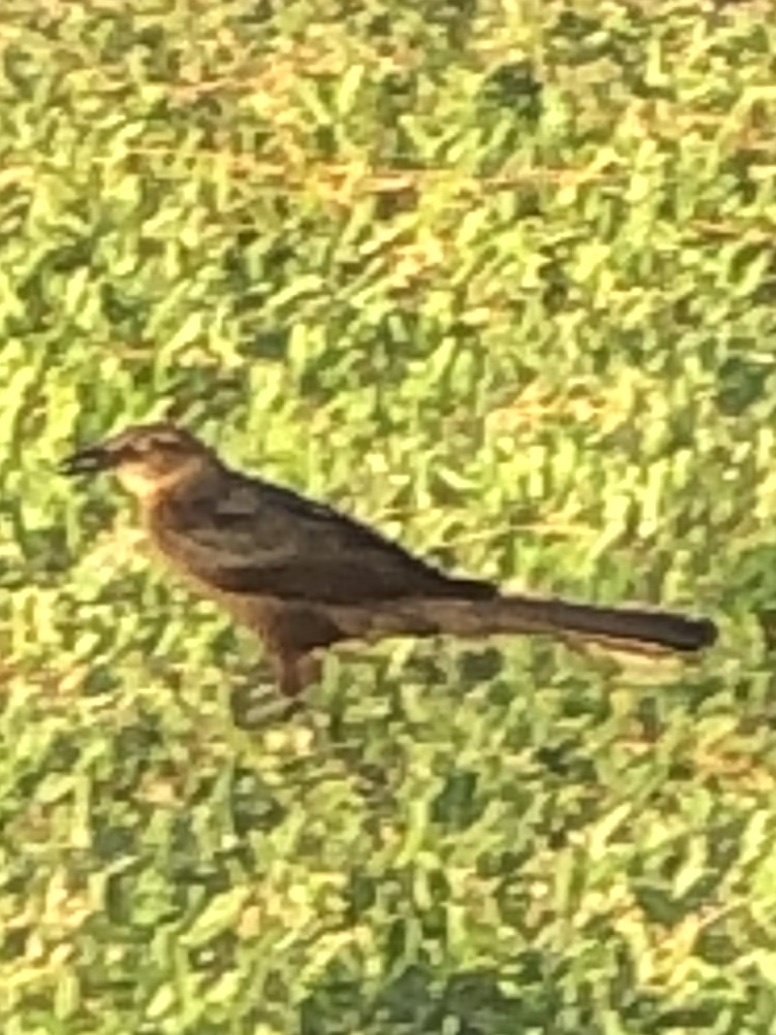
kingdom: Animalia
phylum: Chordata
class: Aves
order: Passeriformes
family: Icteridae
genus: Quiscalus
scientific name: Quiscalus mexicanus
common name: Great-tailed grackle
